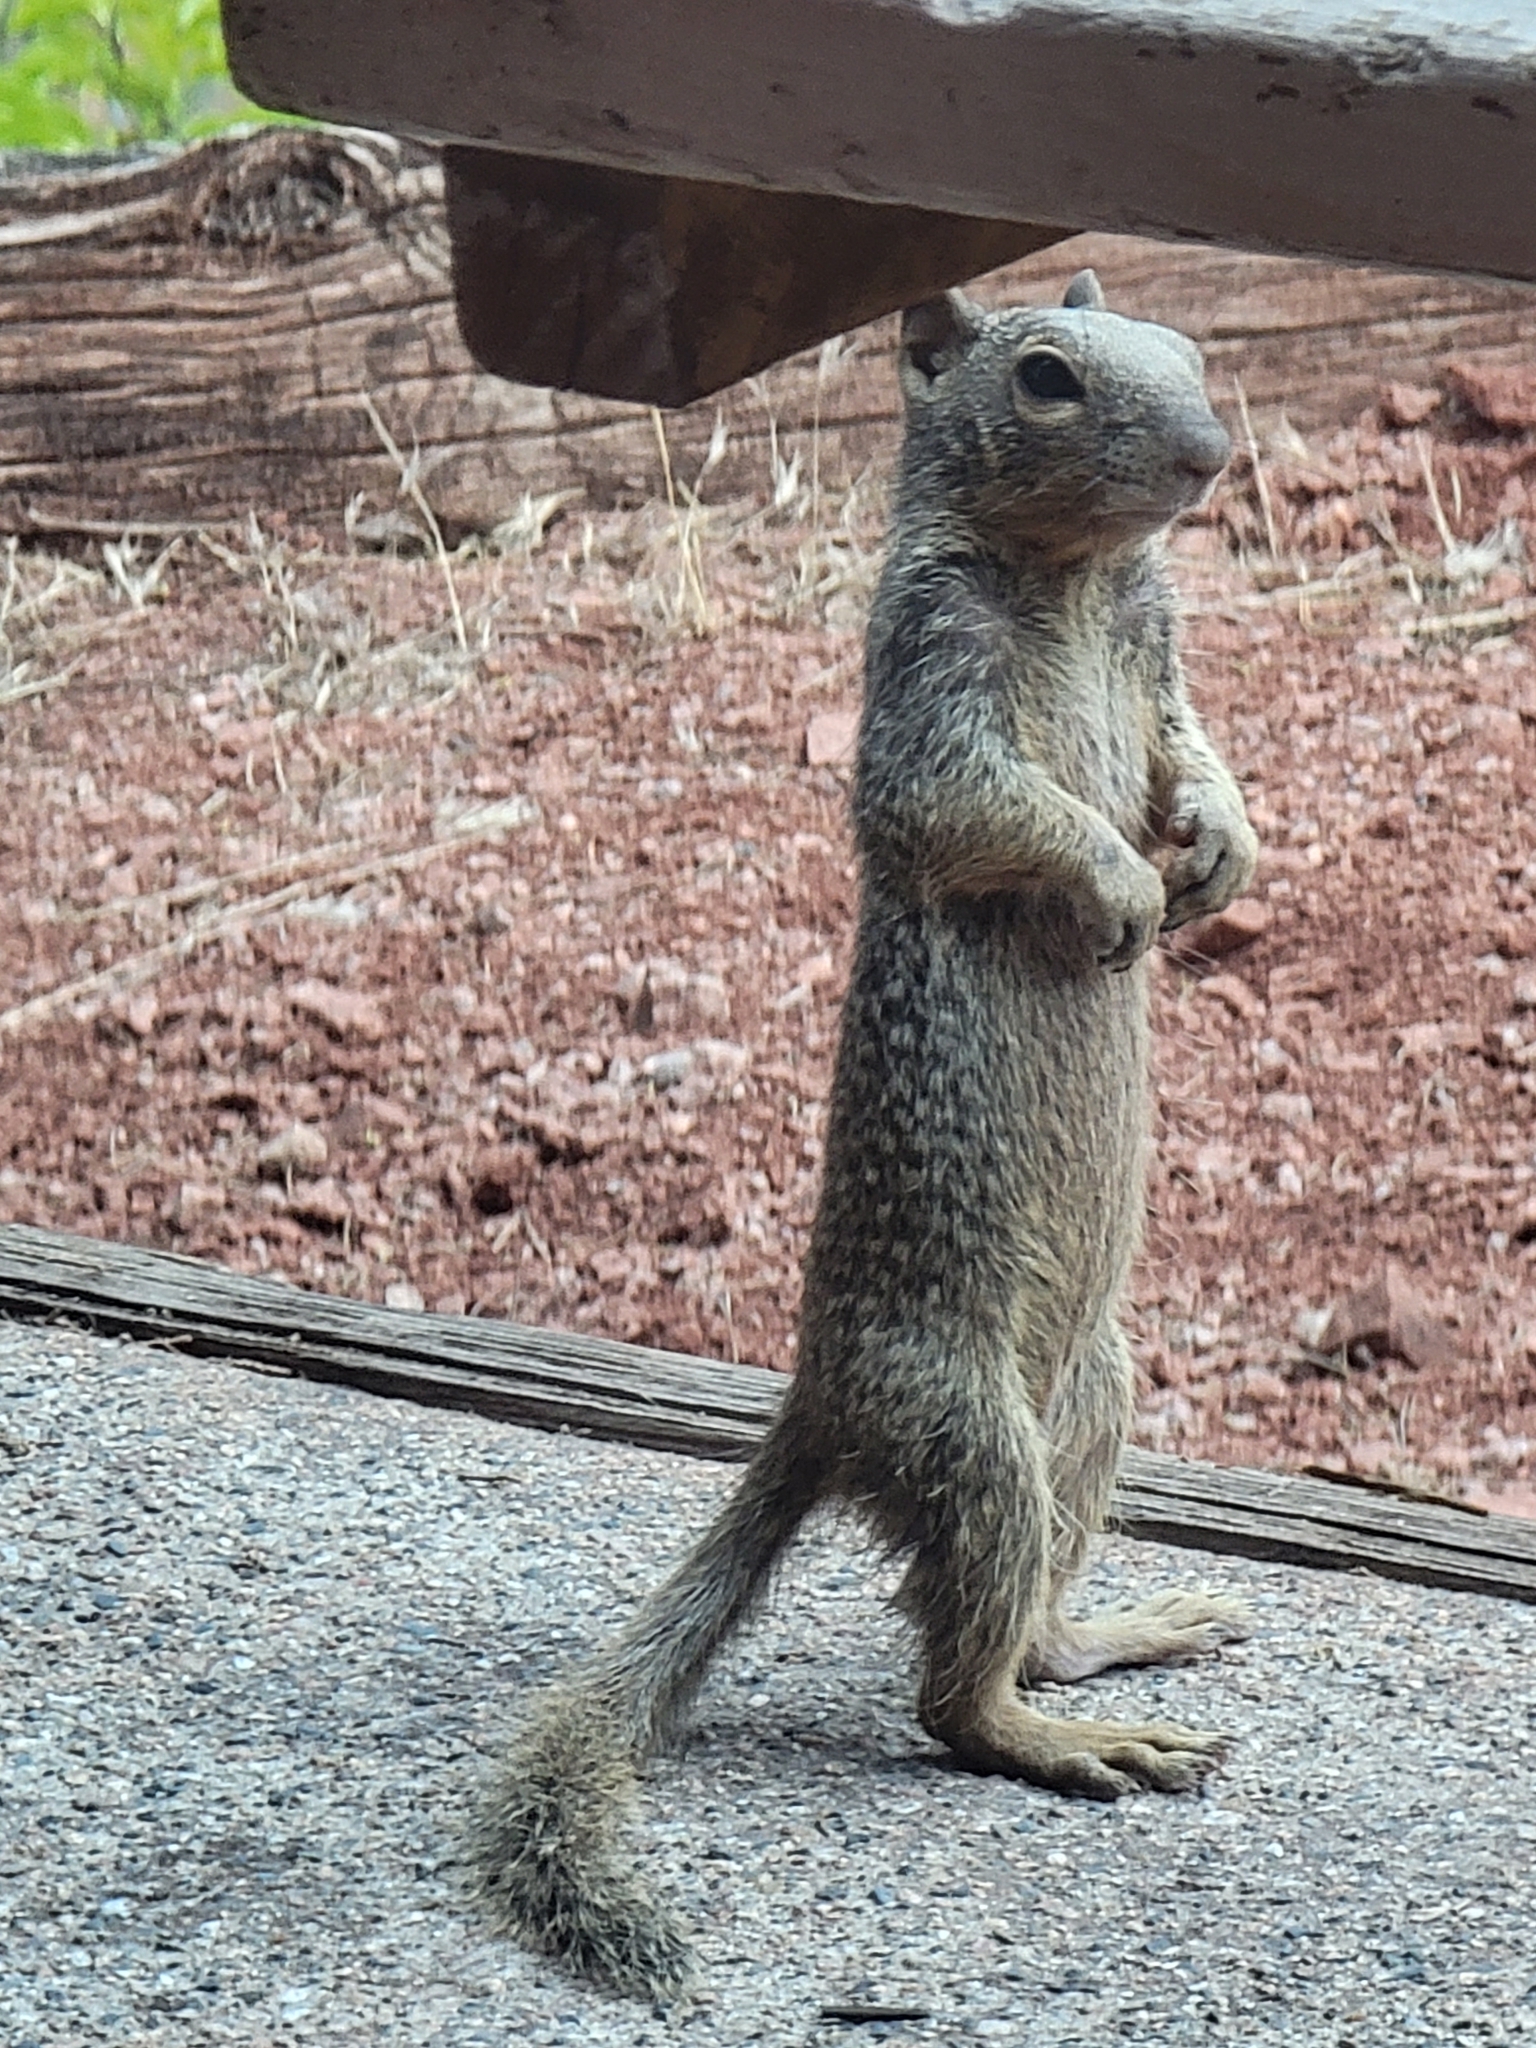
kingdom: Animalia
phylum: Chordata
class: Mammalia
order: Rodentia
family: Sciuridae
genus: Otospermophilus
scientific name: Otospermophilus variegatus
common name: Rock squirrel
